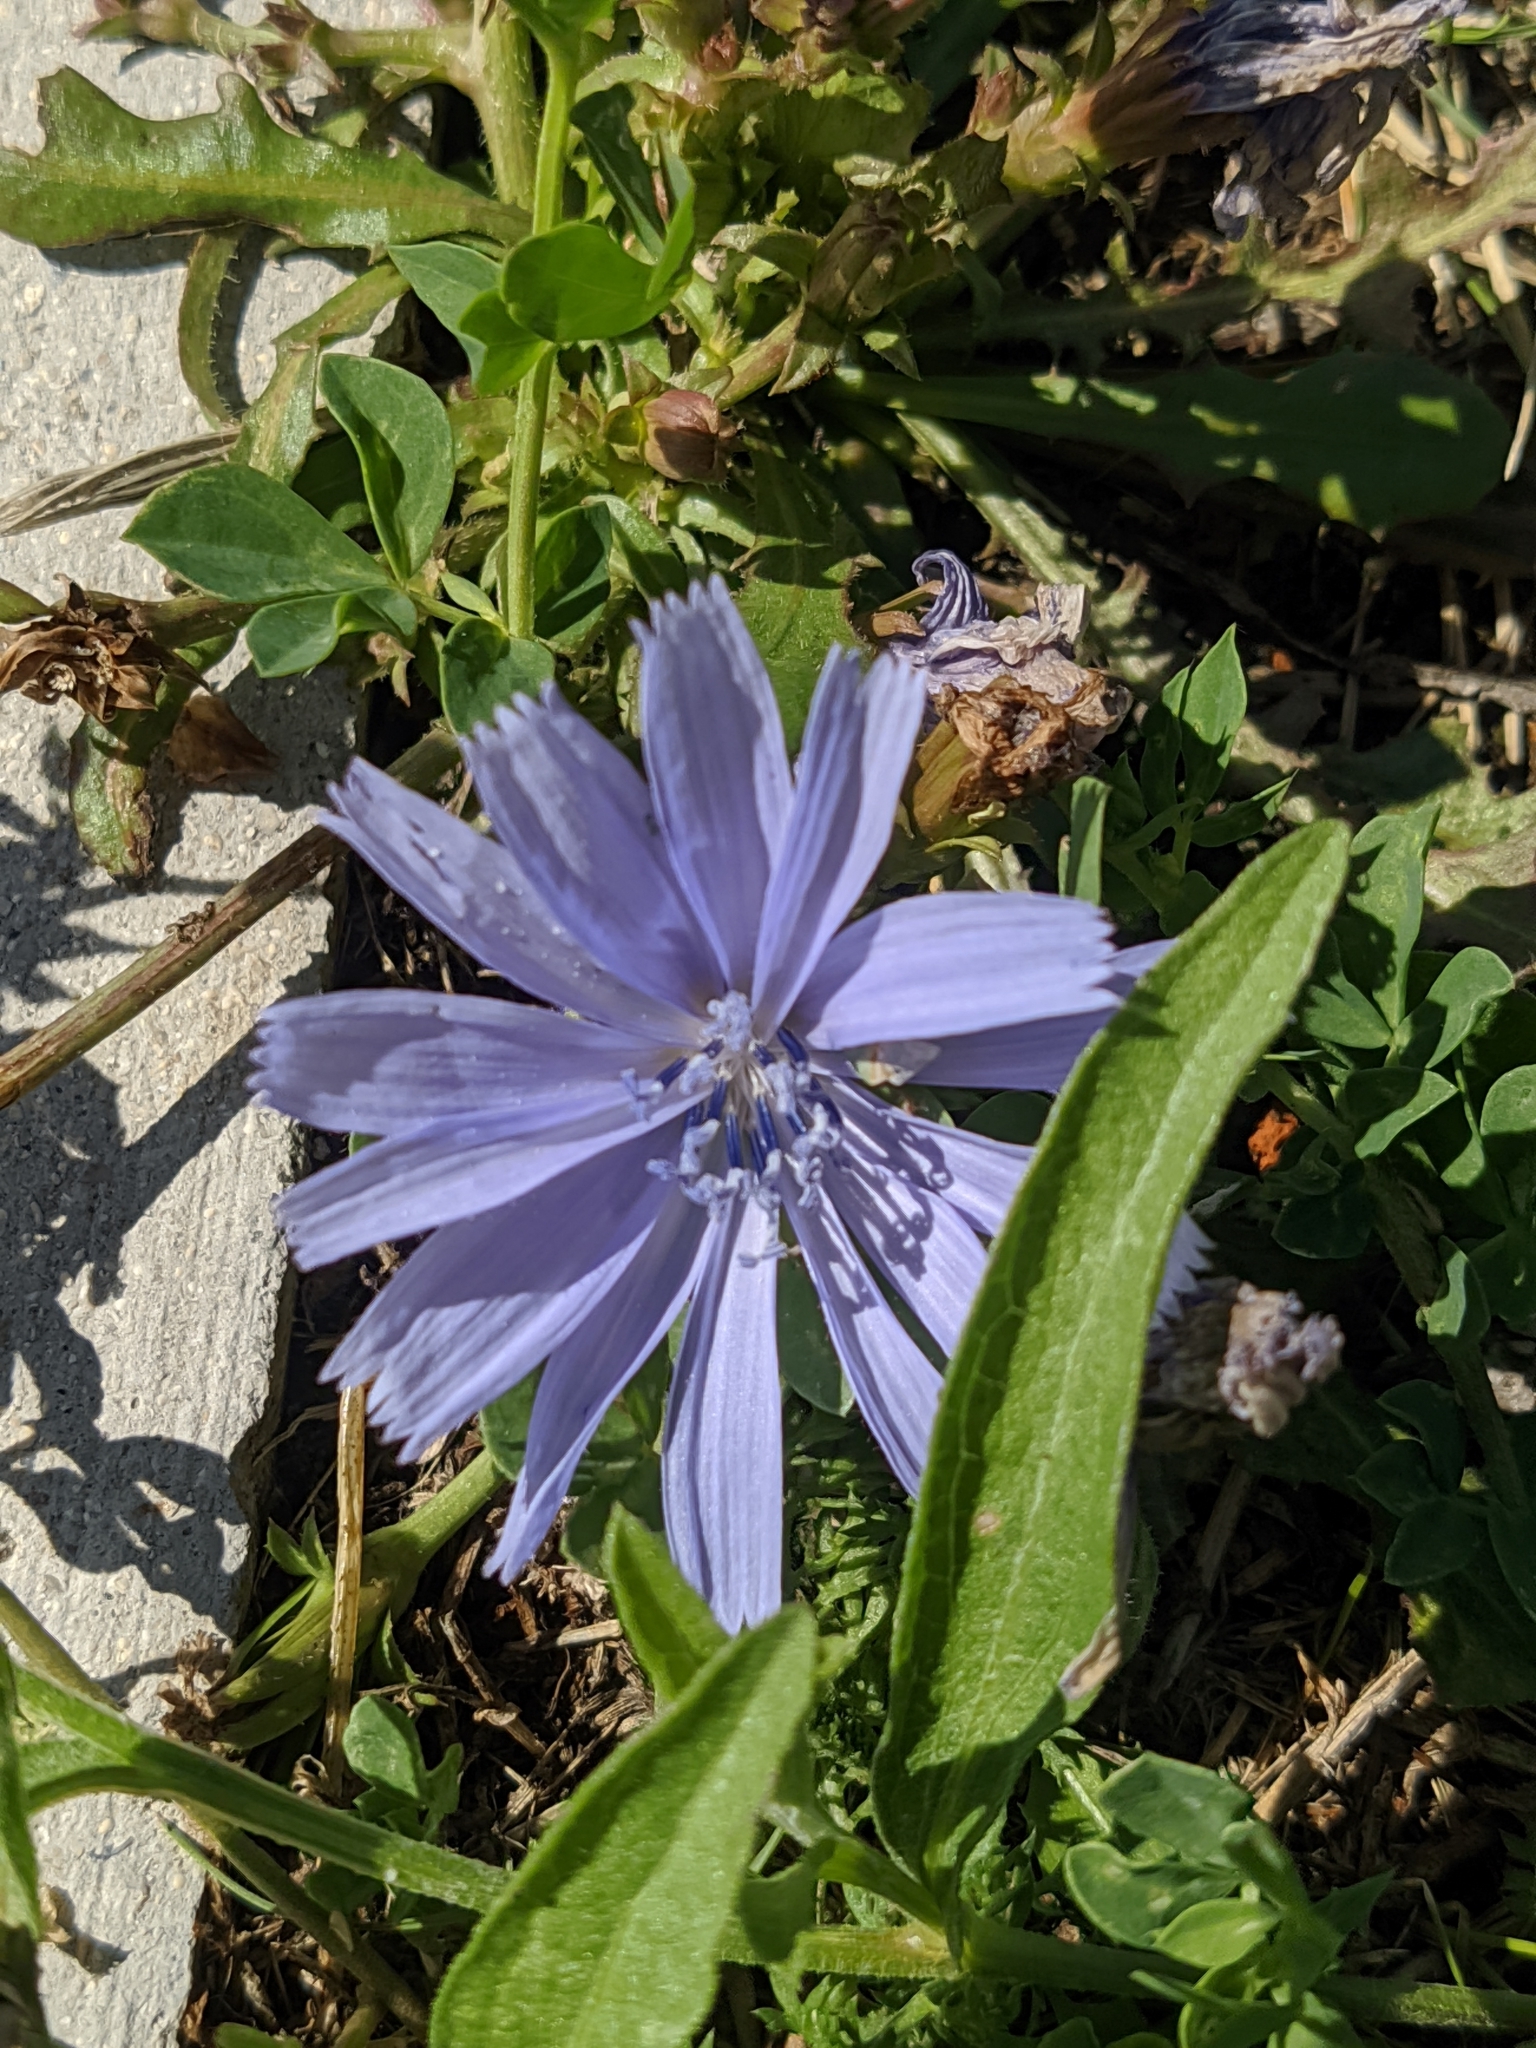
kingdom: Plantae
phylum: Tracheophyta
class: Magnoliopsida
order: Asterales
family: Asteraceae
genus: Cichorium
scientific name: Cichorium intybus
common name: Chicory
